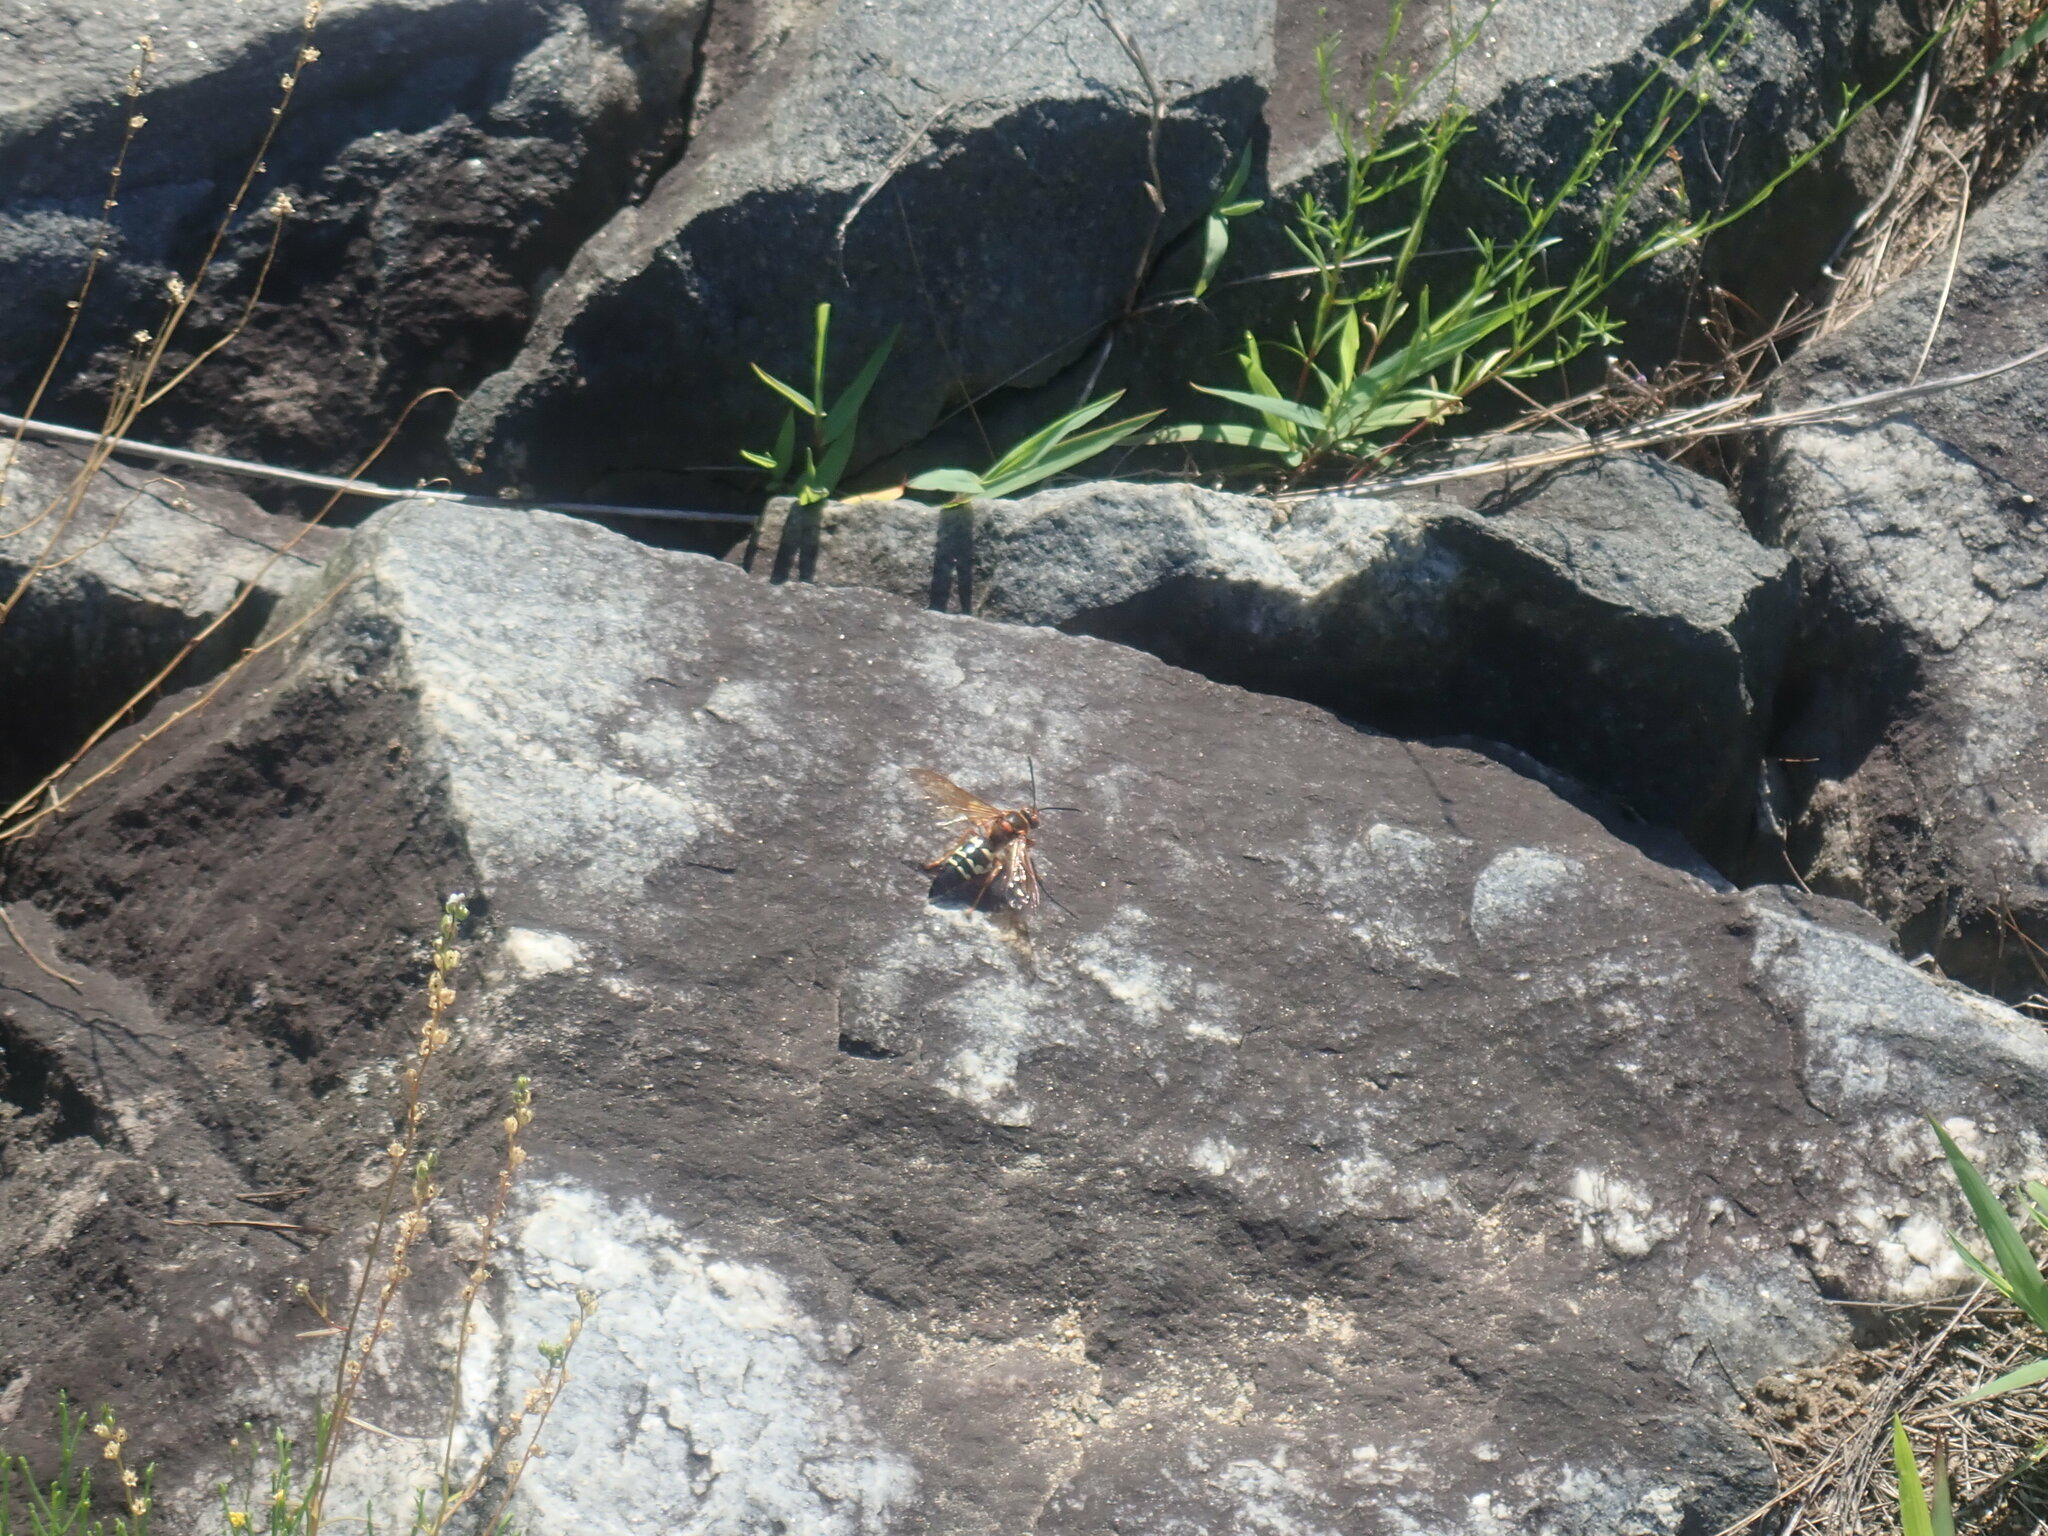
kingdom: Animalia
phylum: Arthropoda
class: Insecta
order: Hymenoptera
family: Crabronidae
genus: Sphecius
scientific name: Sphecius speciosus
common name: Cicada killer
